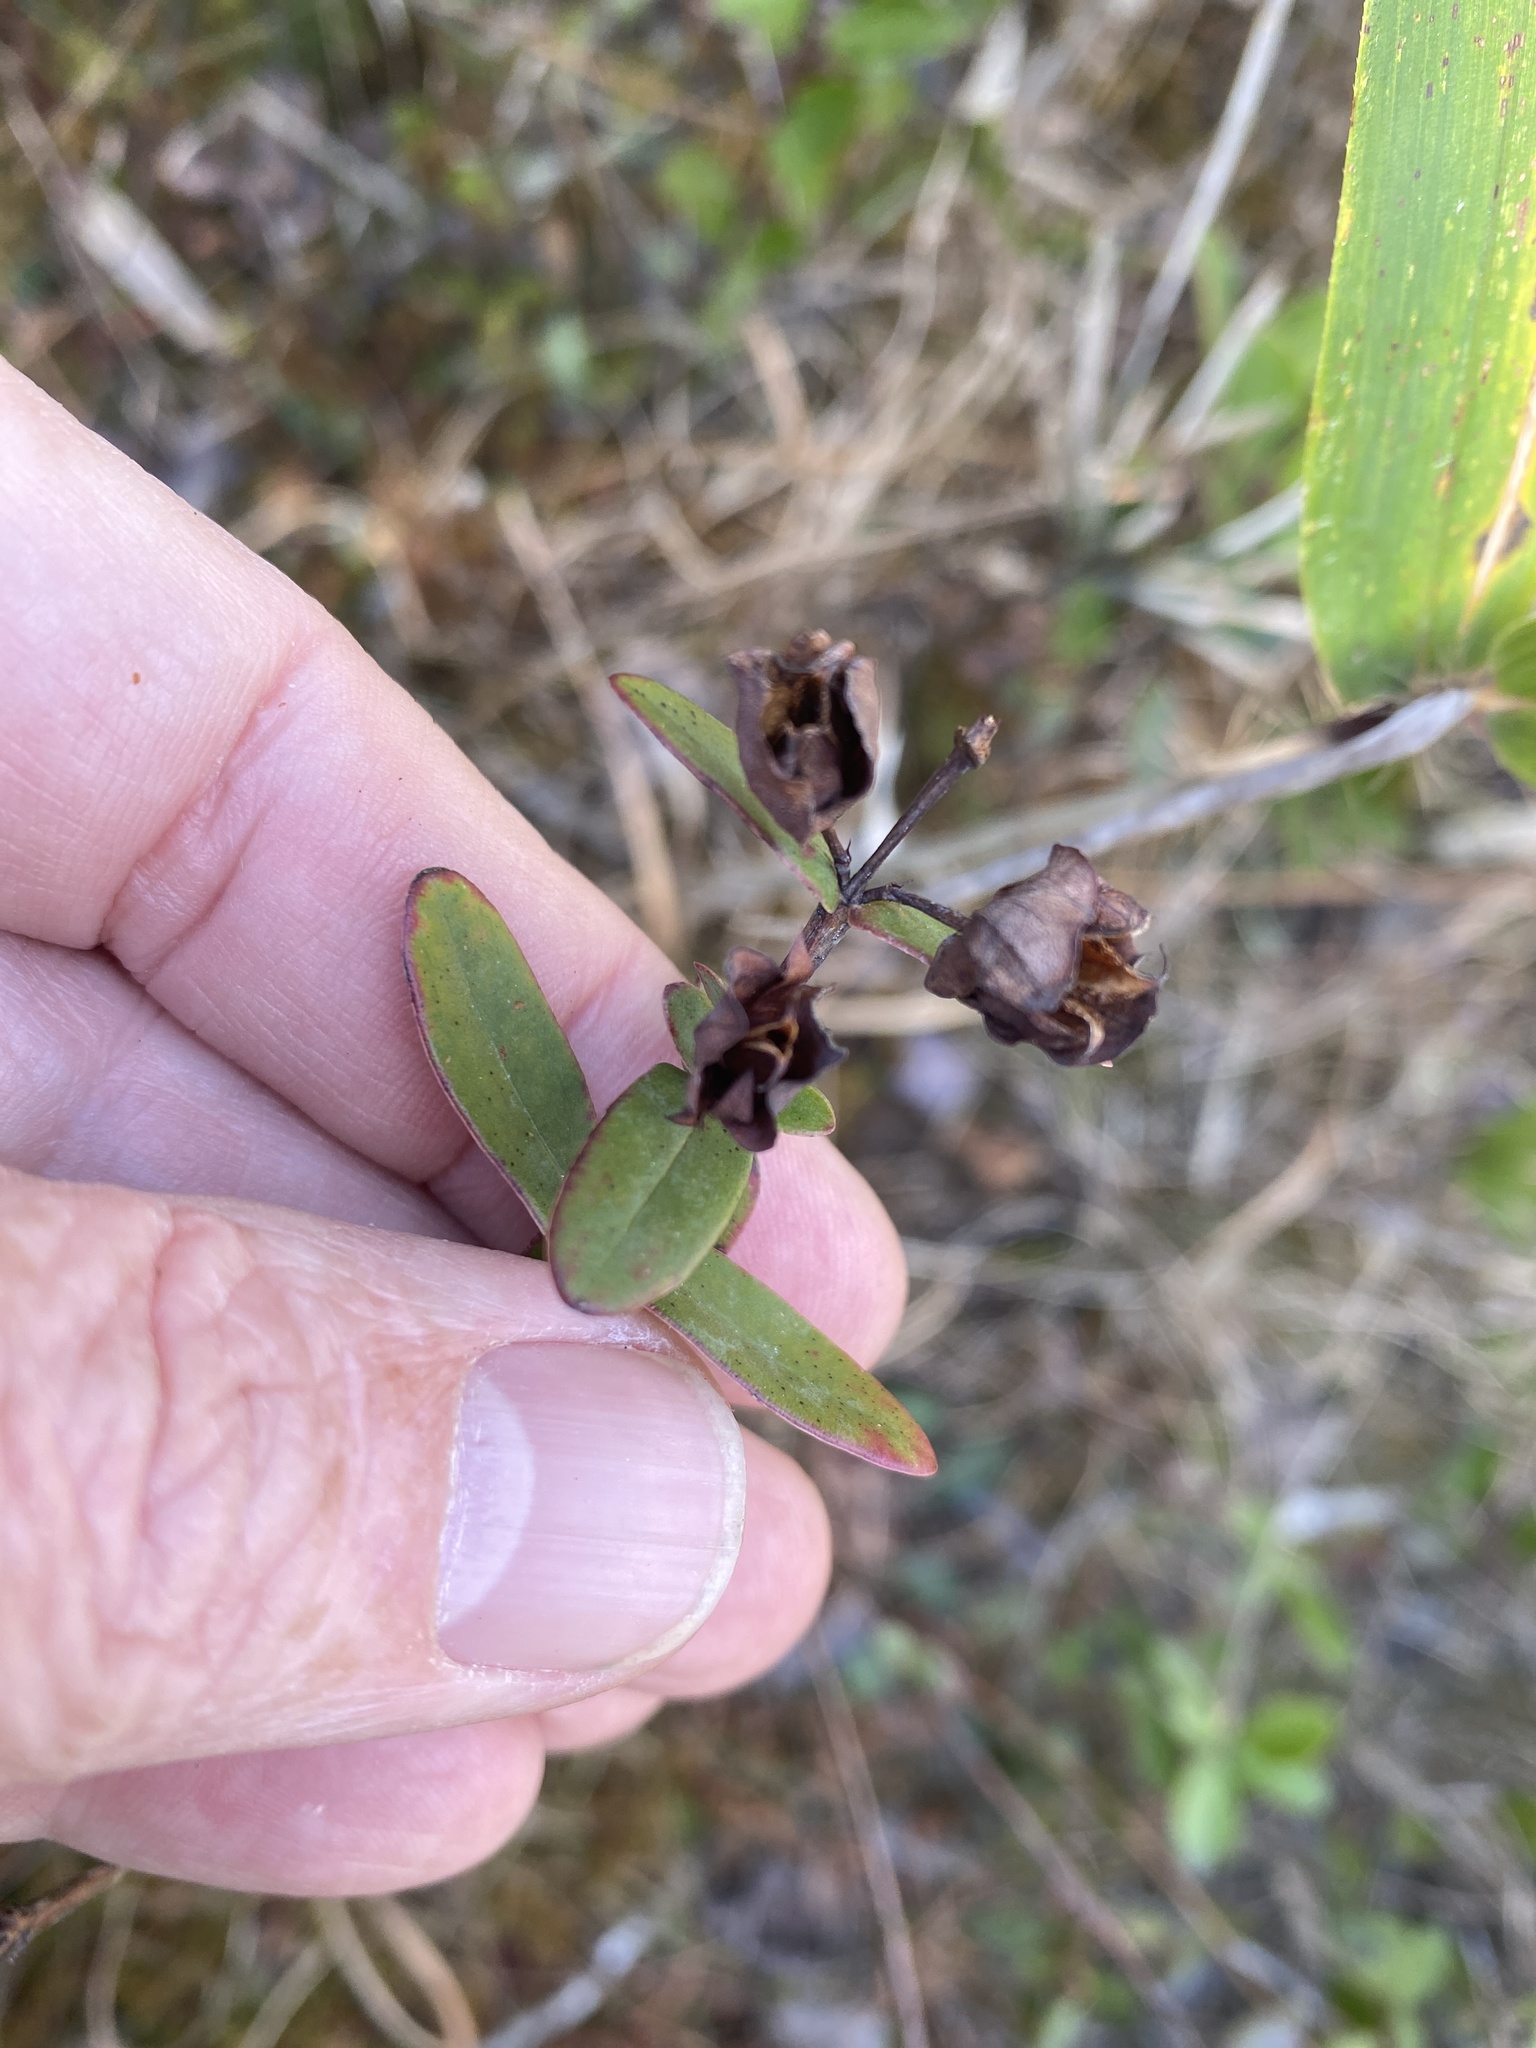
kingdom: Plantae
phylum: Tracheophyta
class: Magnoliopsida
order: Malpighiales
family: Hypericaceae
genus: Hypericum
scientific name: Hypericum crux-andreae
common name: St.-peter's-wort
